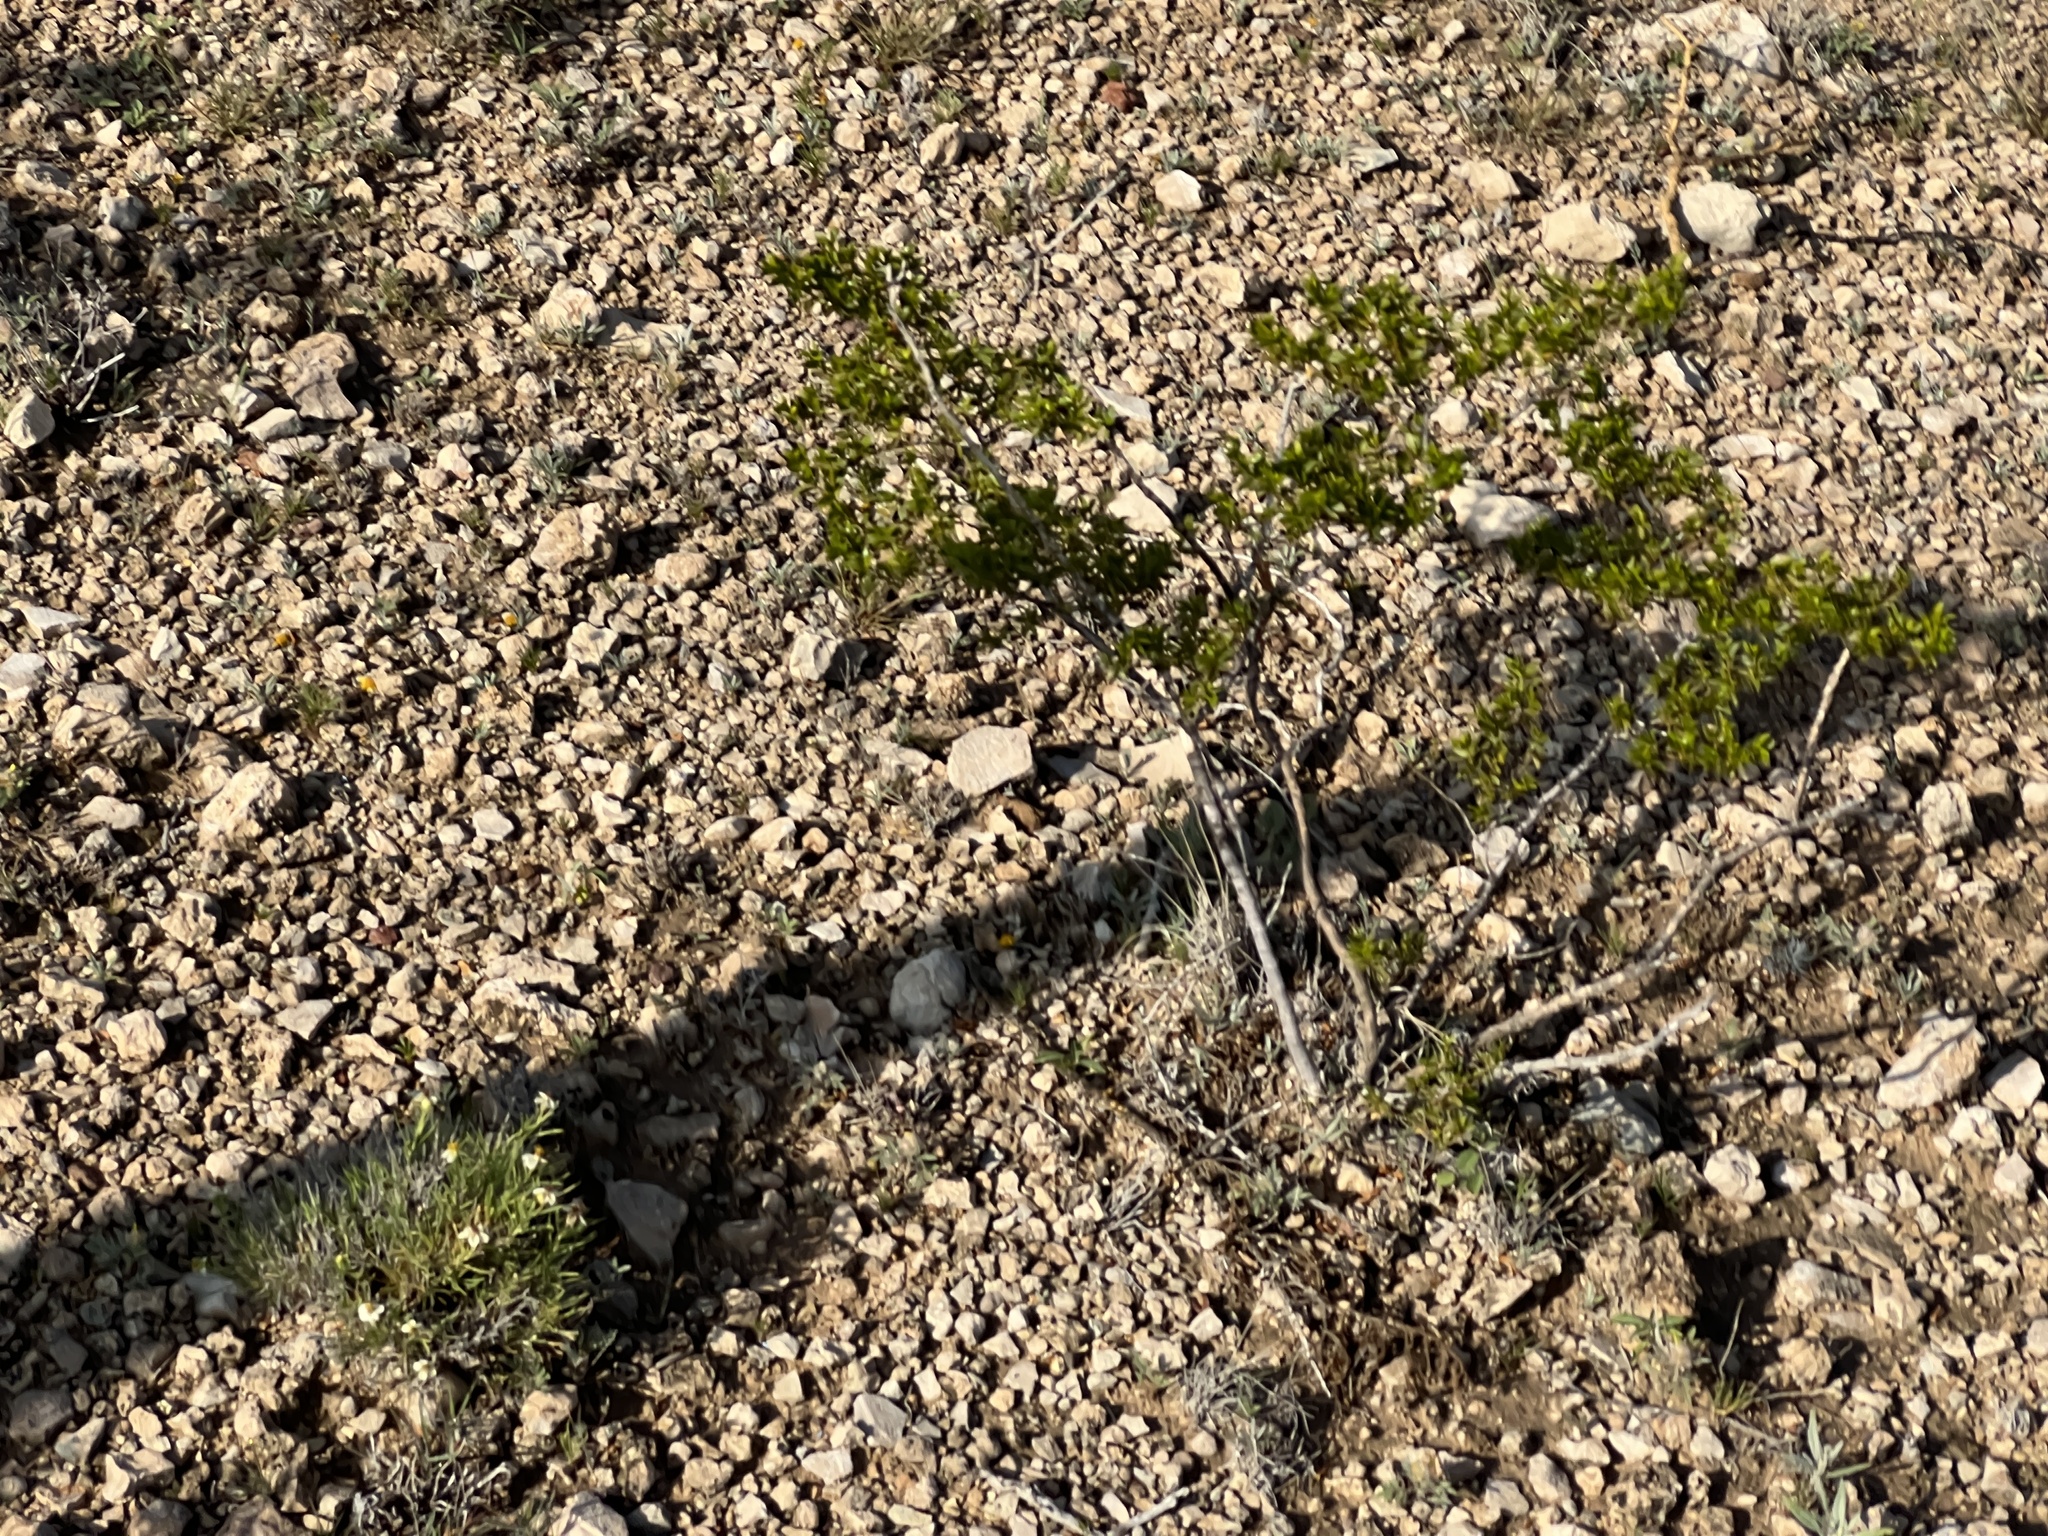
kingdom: Plantae
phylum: Tracheophyta
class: Magnoliopsida
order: Zygophyllales
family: Zygophyllaceae
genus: Larrea
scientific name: Larrea tridentata
